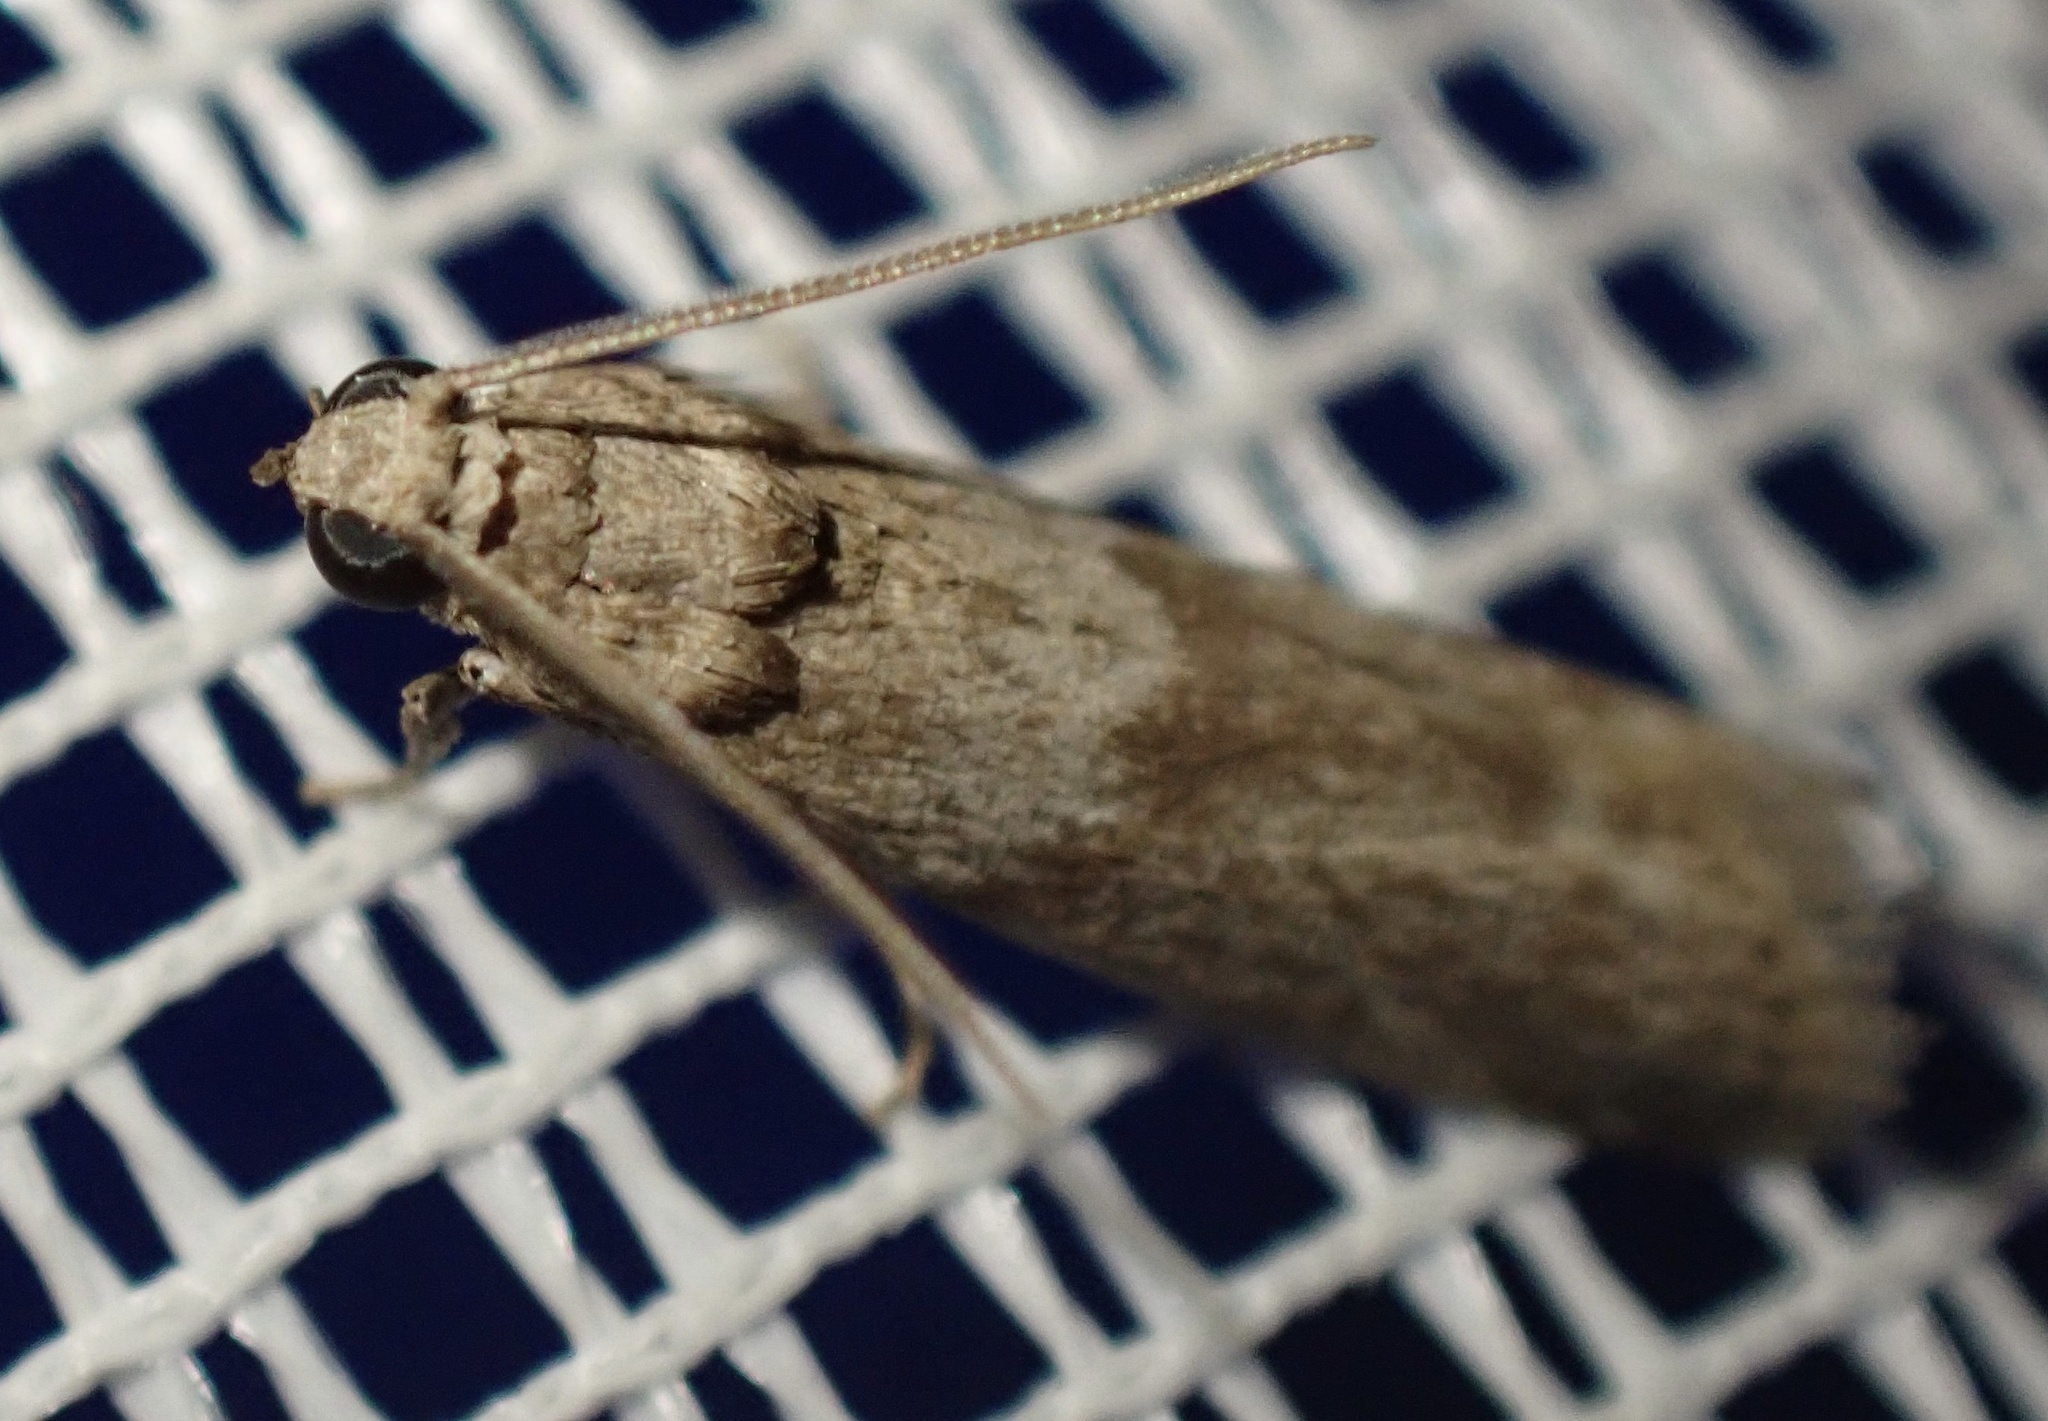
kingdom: Animalia
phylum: Arthropoda
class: Insecta
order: Lepidoptera
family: Pyralidae
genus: Ectomyelois
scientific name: Ectomyelois ceratoniae
